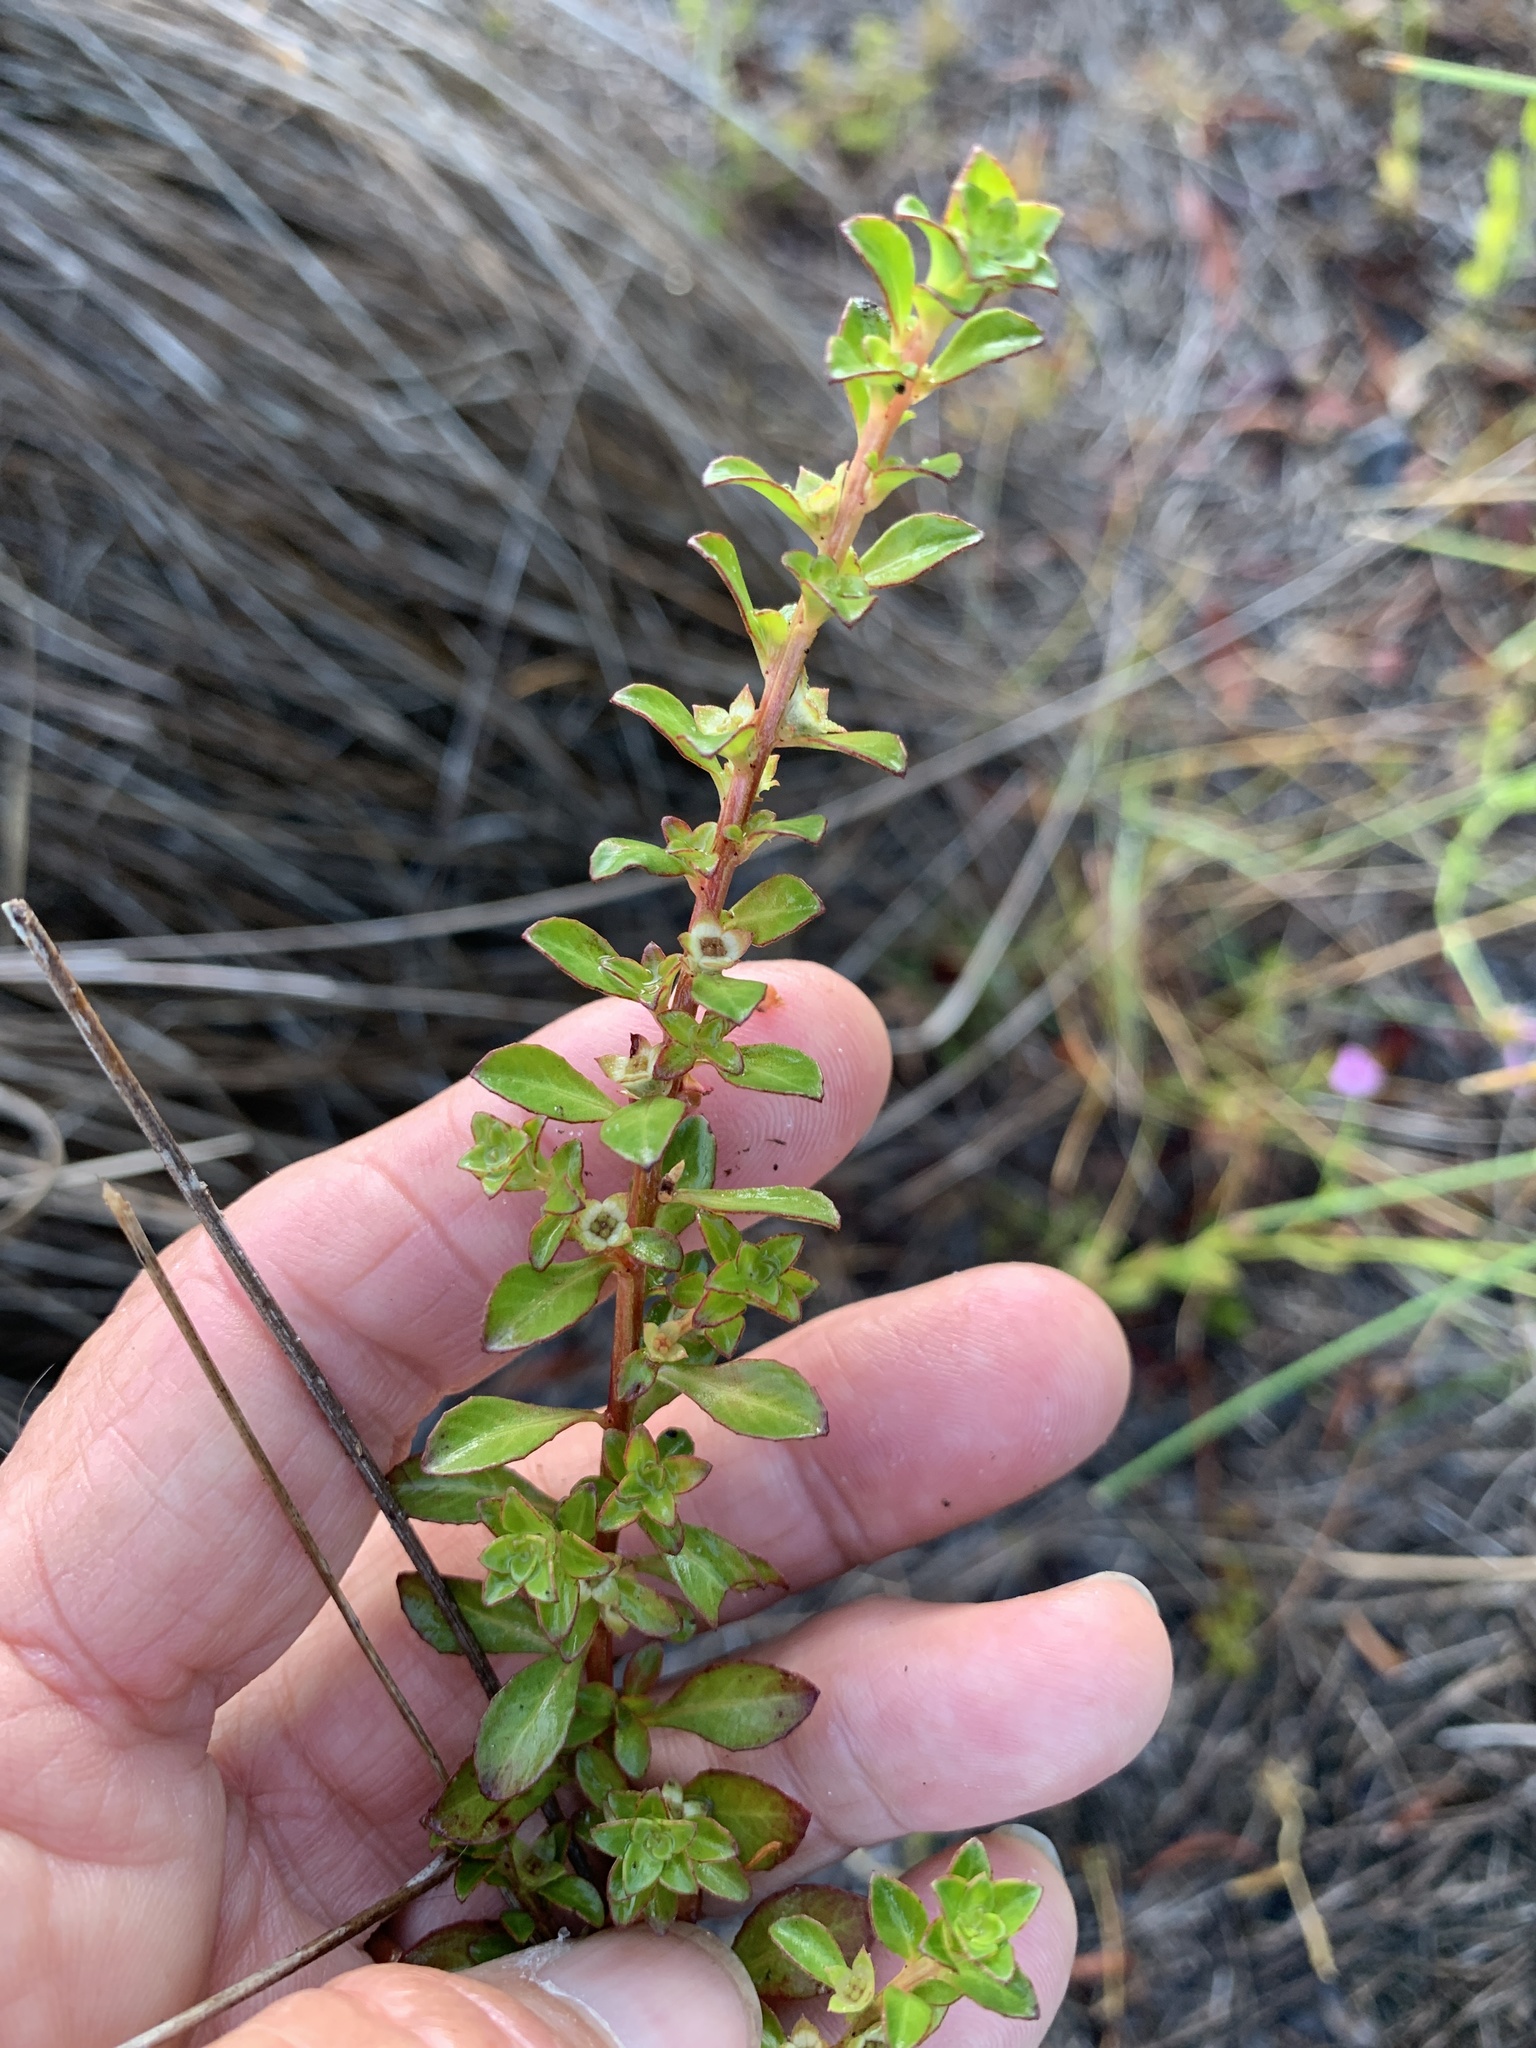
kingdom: Plantae
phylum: Tracheophyta
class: Magnoliopsida
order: Myrtales
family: Onagraceae
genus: Ludwigia
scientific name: Ludwigia microcarpa
